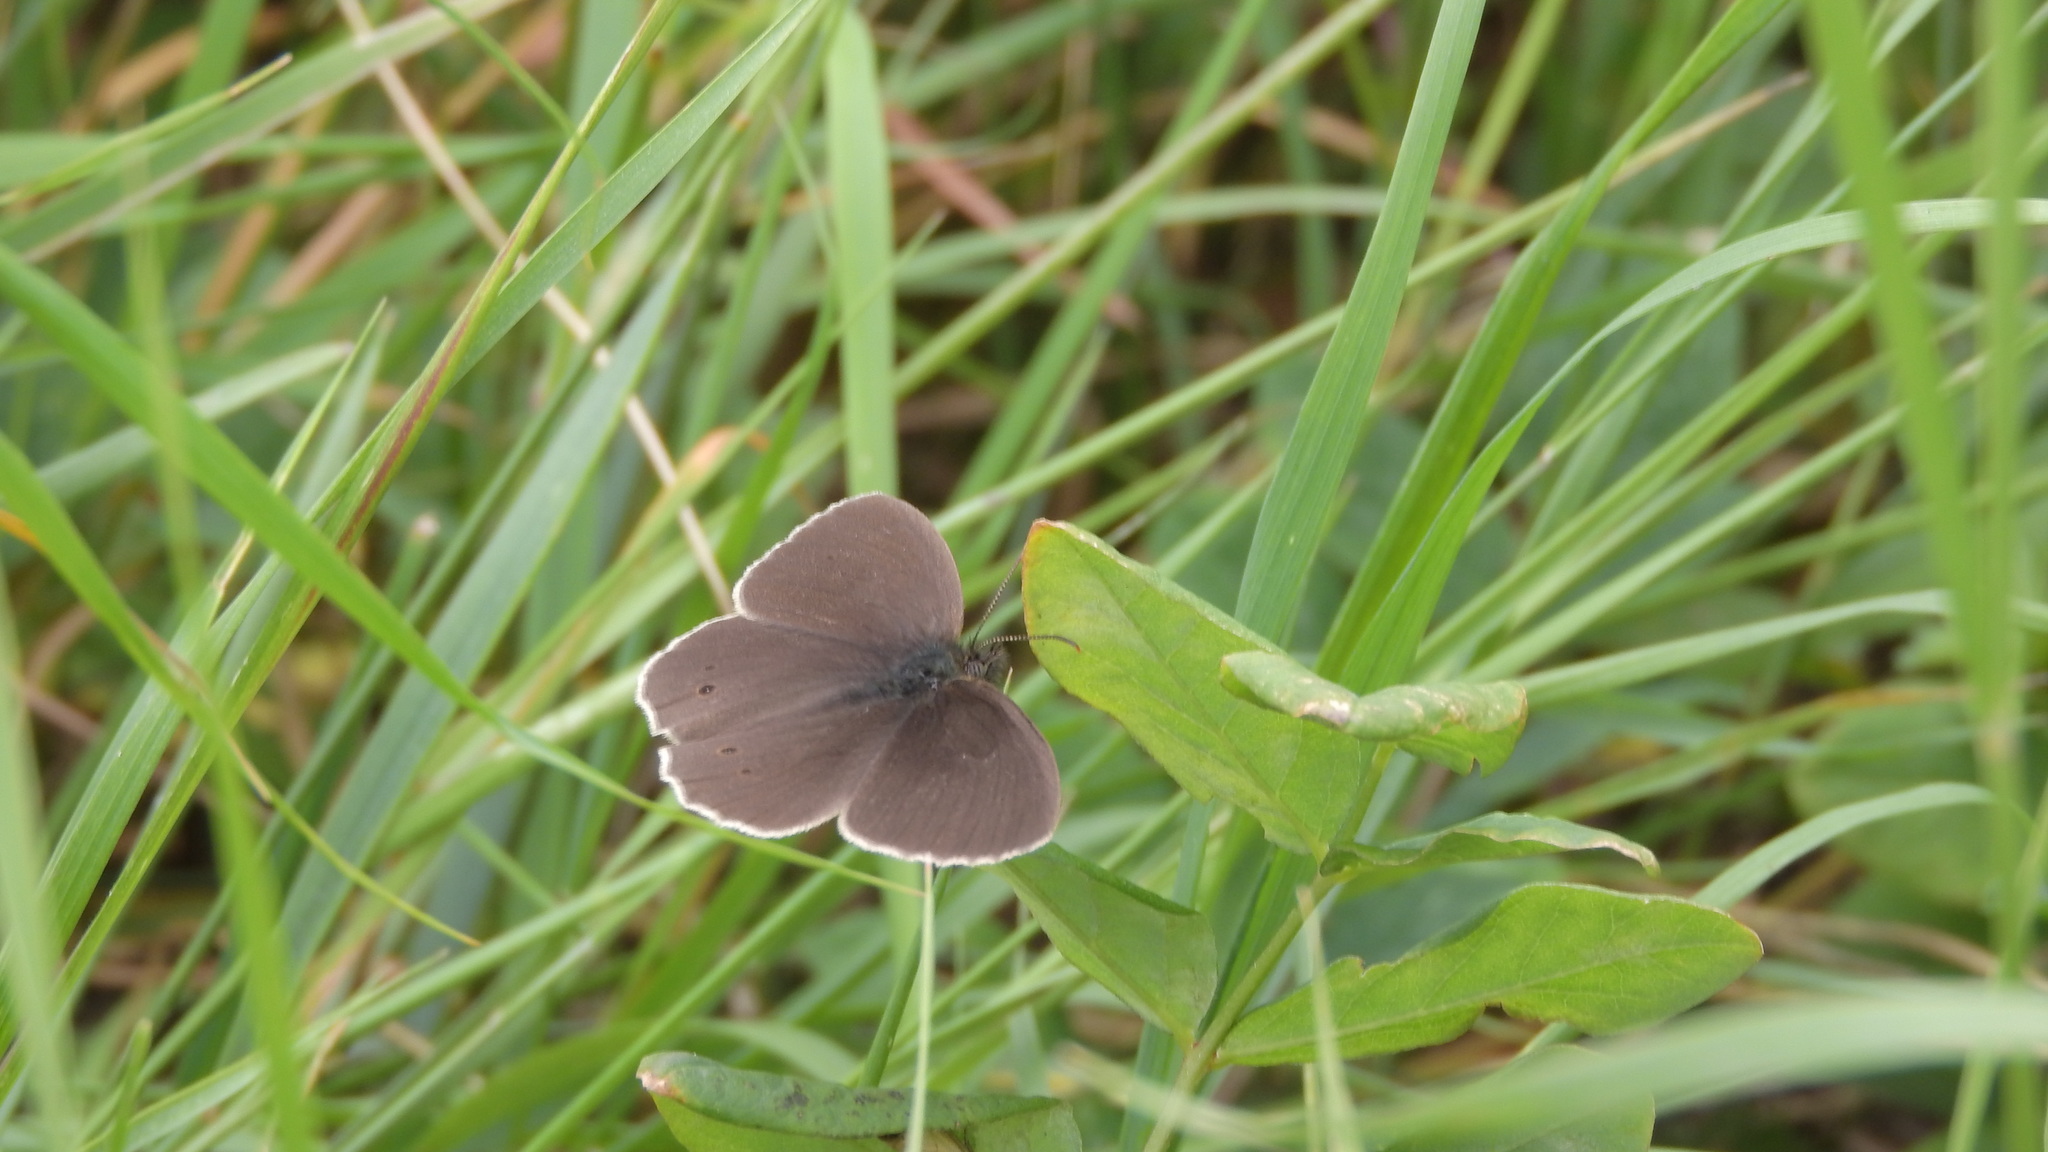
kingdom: Animalia
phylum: Arthropoda
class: Insecta
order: Lepidoptera
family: Nymphalidae
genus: Aphantopus
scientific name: Aphantopus hyperantus
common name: Ringlet
